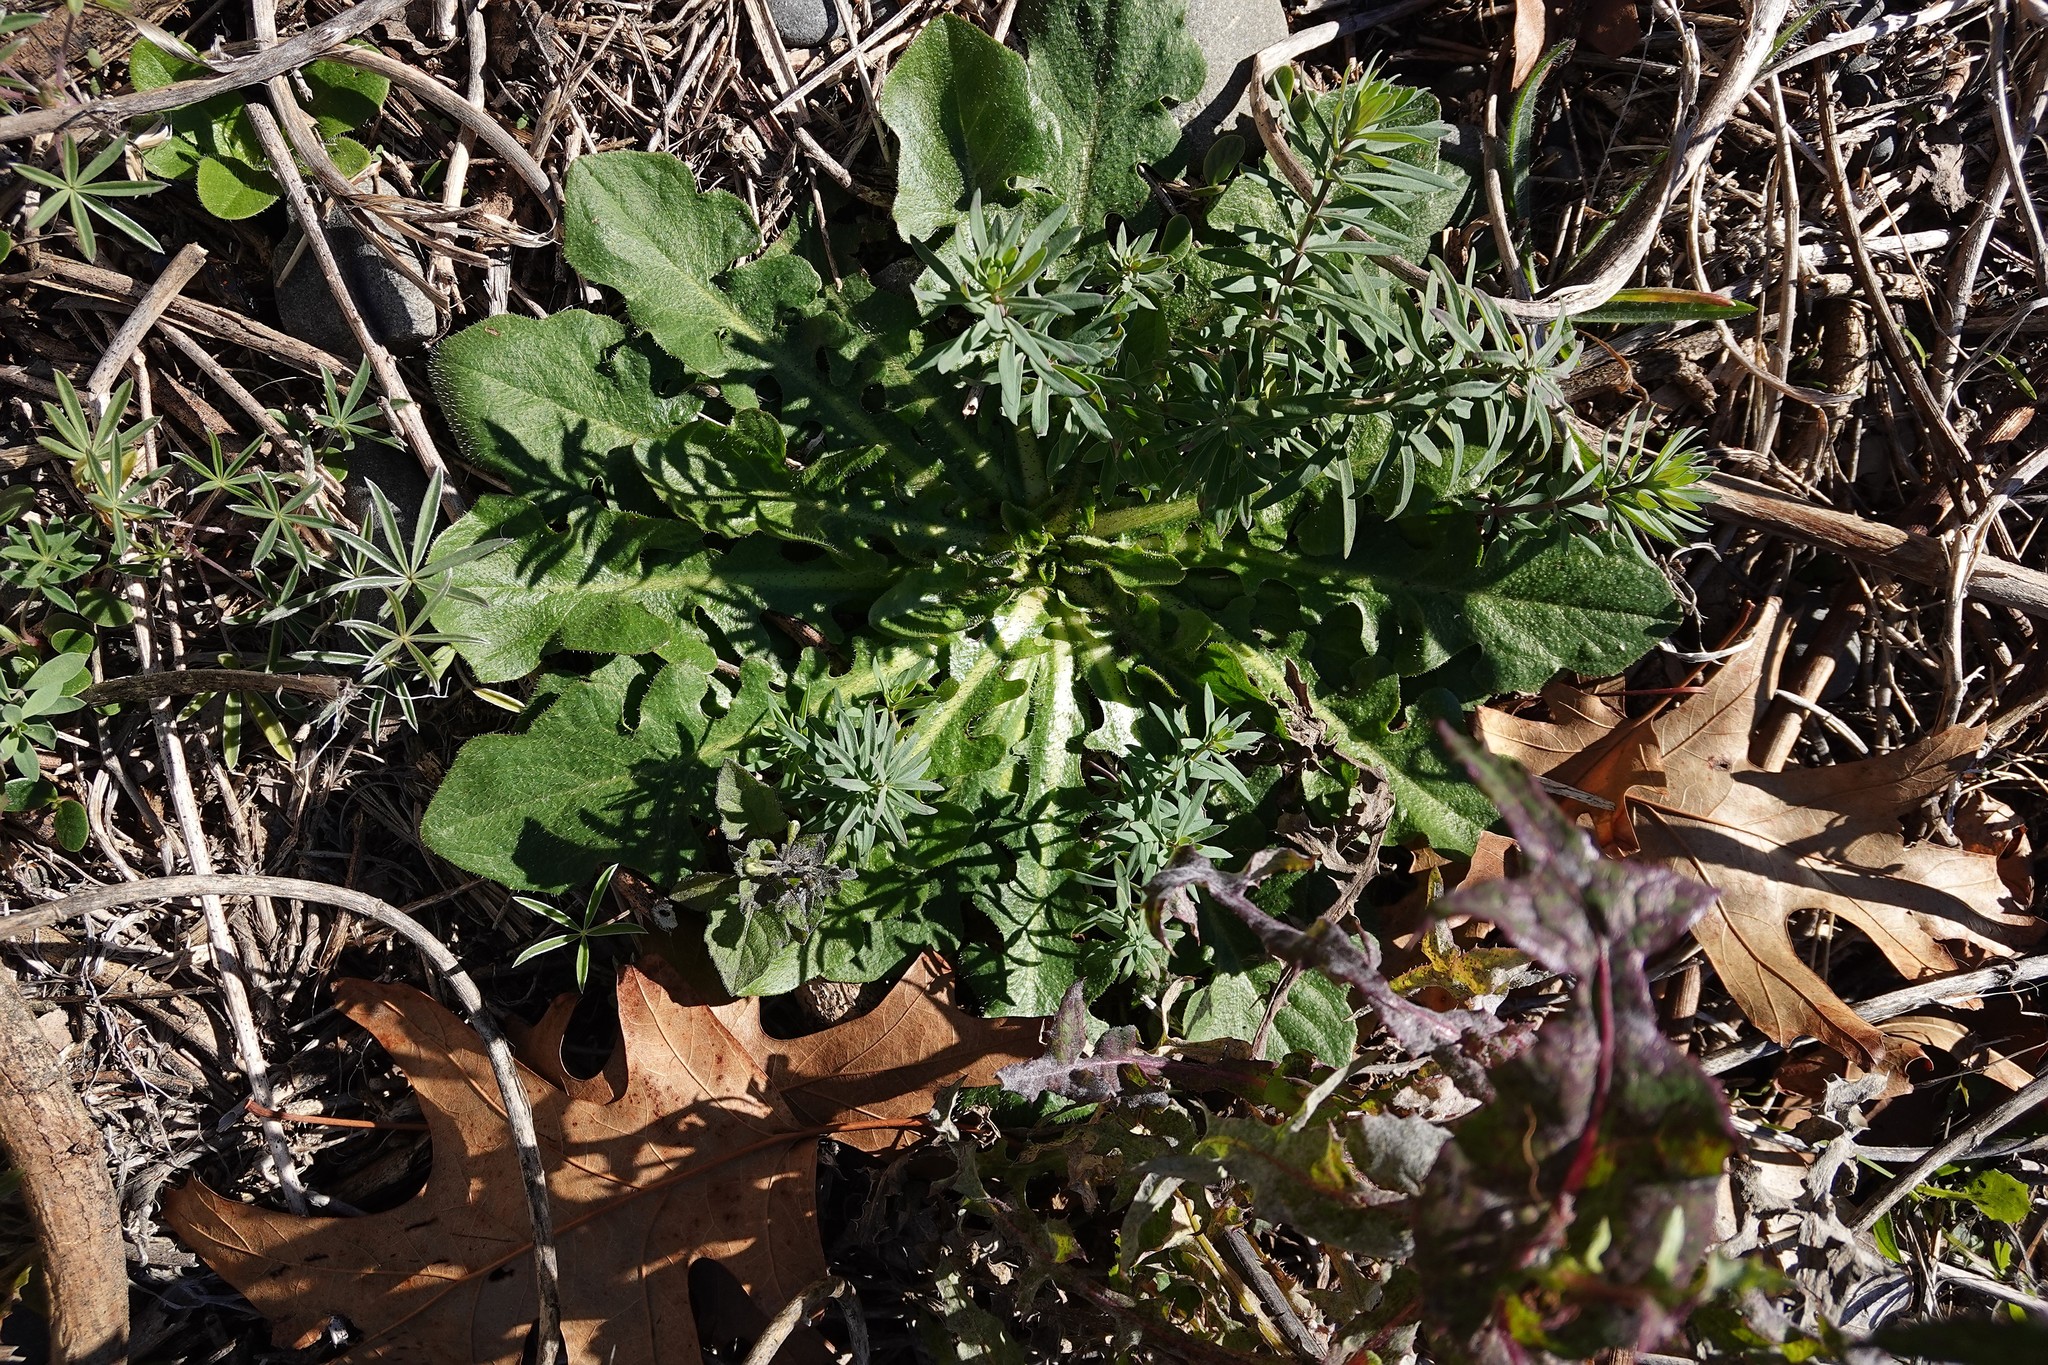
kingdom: Plantae
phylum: Tracheophyta
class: Magnoliopsida
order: Asterales
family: Asteraceae
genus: Hypochaeris
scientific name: Hypochaeris radicata
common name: Flatweed
